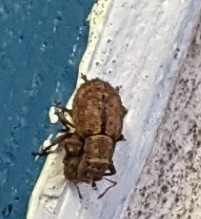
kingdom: Animalia
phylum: Arthropoda
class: Insecta
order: Coleoptera
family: Curculionidae
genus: Strophosoma
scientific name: Strophosoma melanogrammum
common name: Weevil
